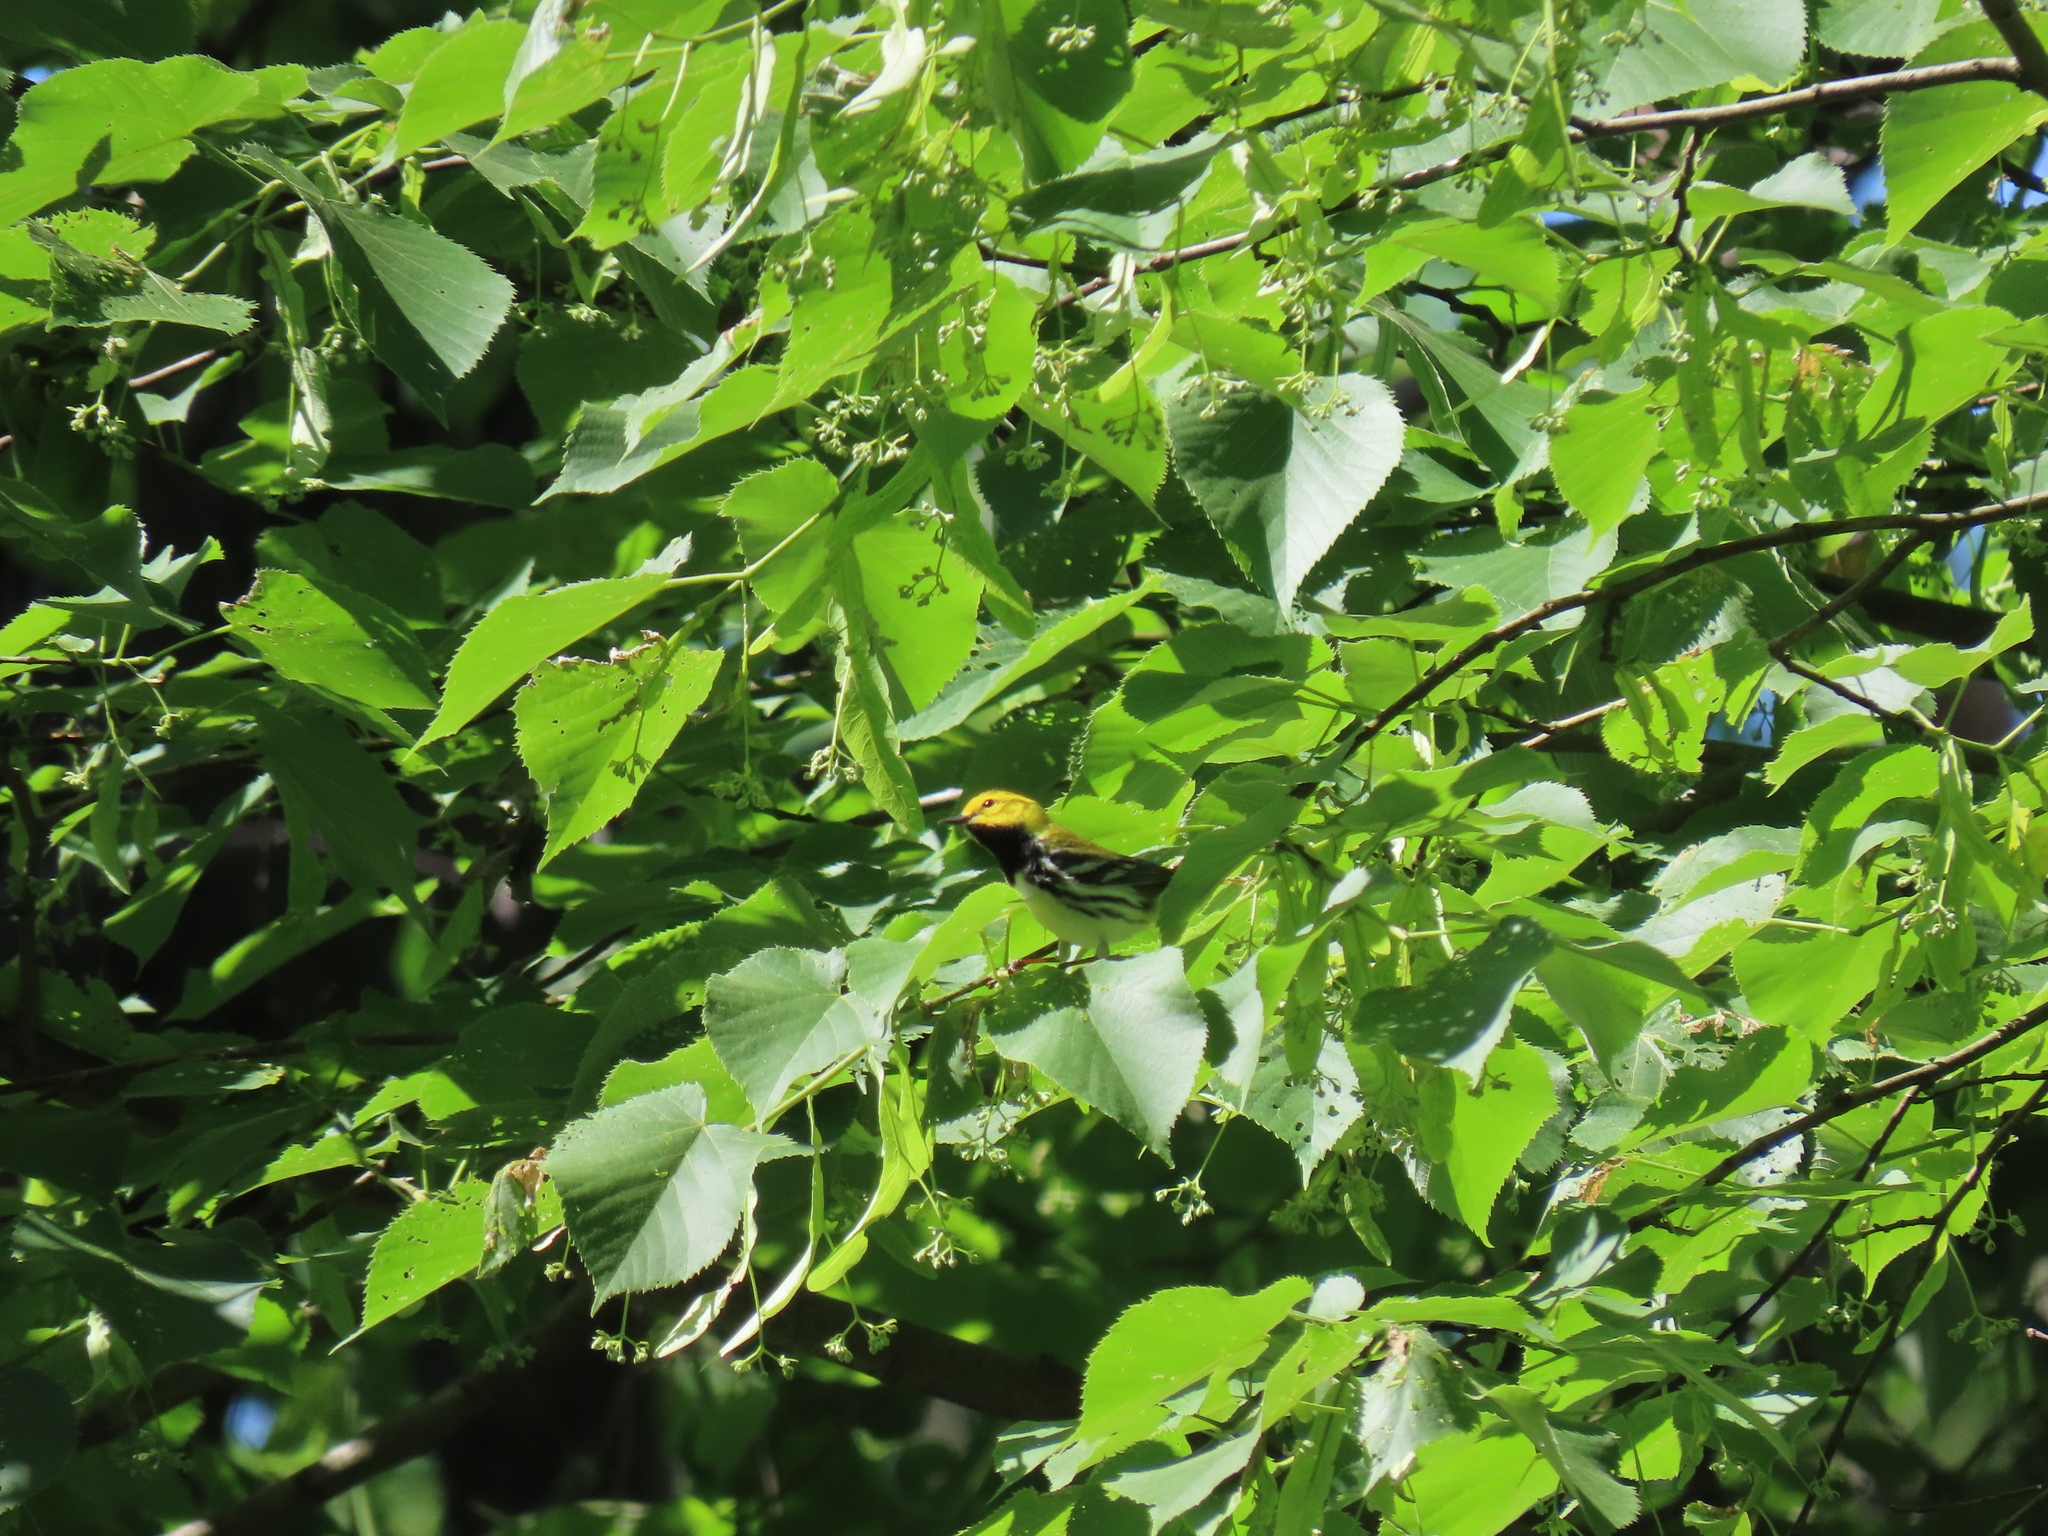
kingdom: Animalia
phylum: Chordata
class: Aves
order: Passeriformes
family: Parulidae
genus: Setophaga
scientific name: Setophaga virens
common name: Black-throated green warbler
